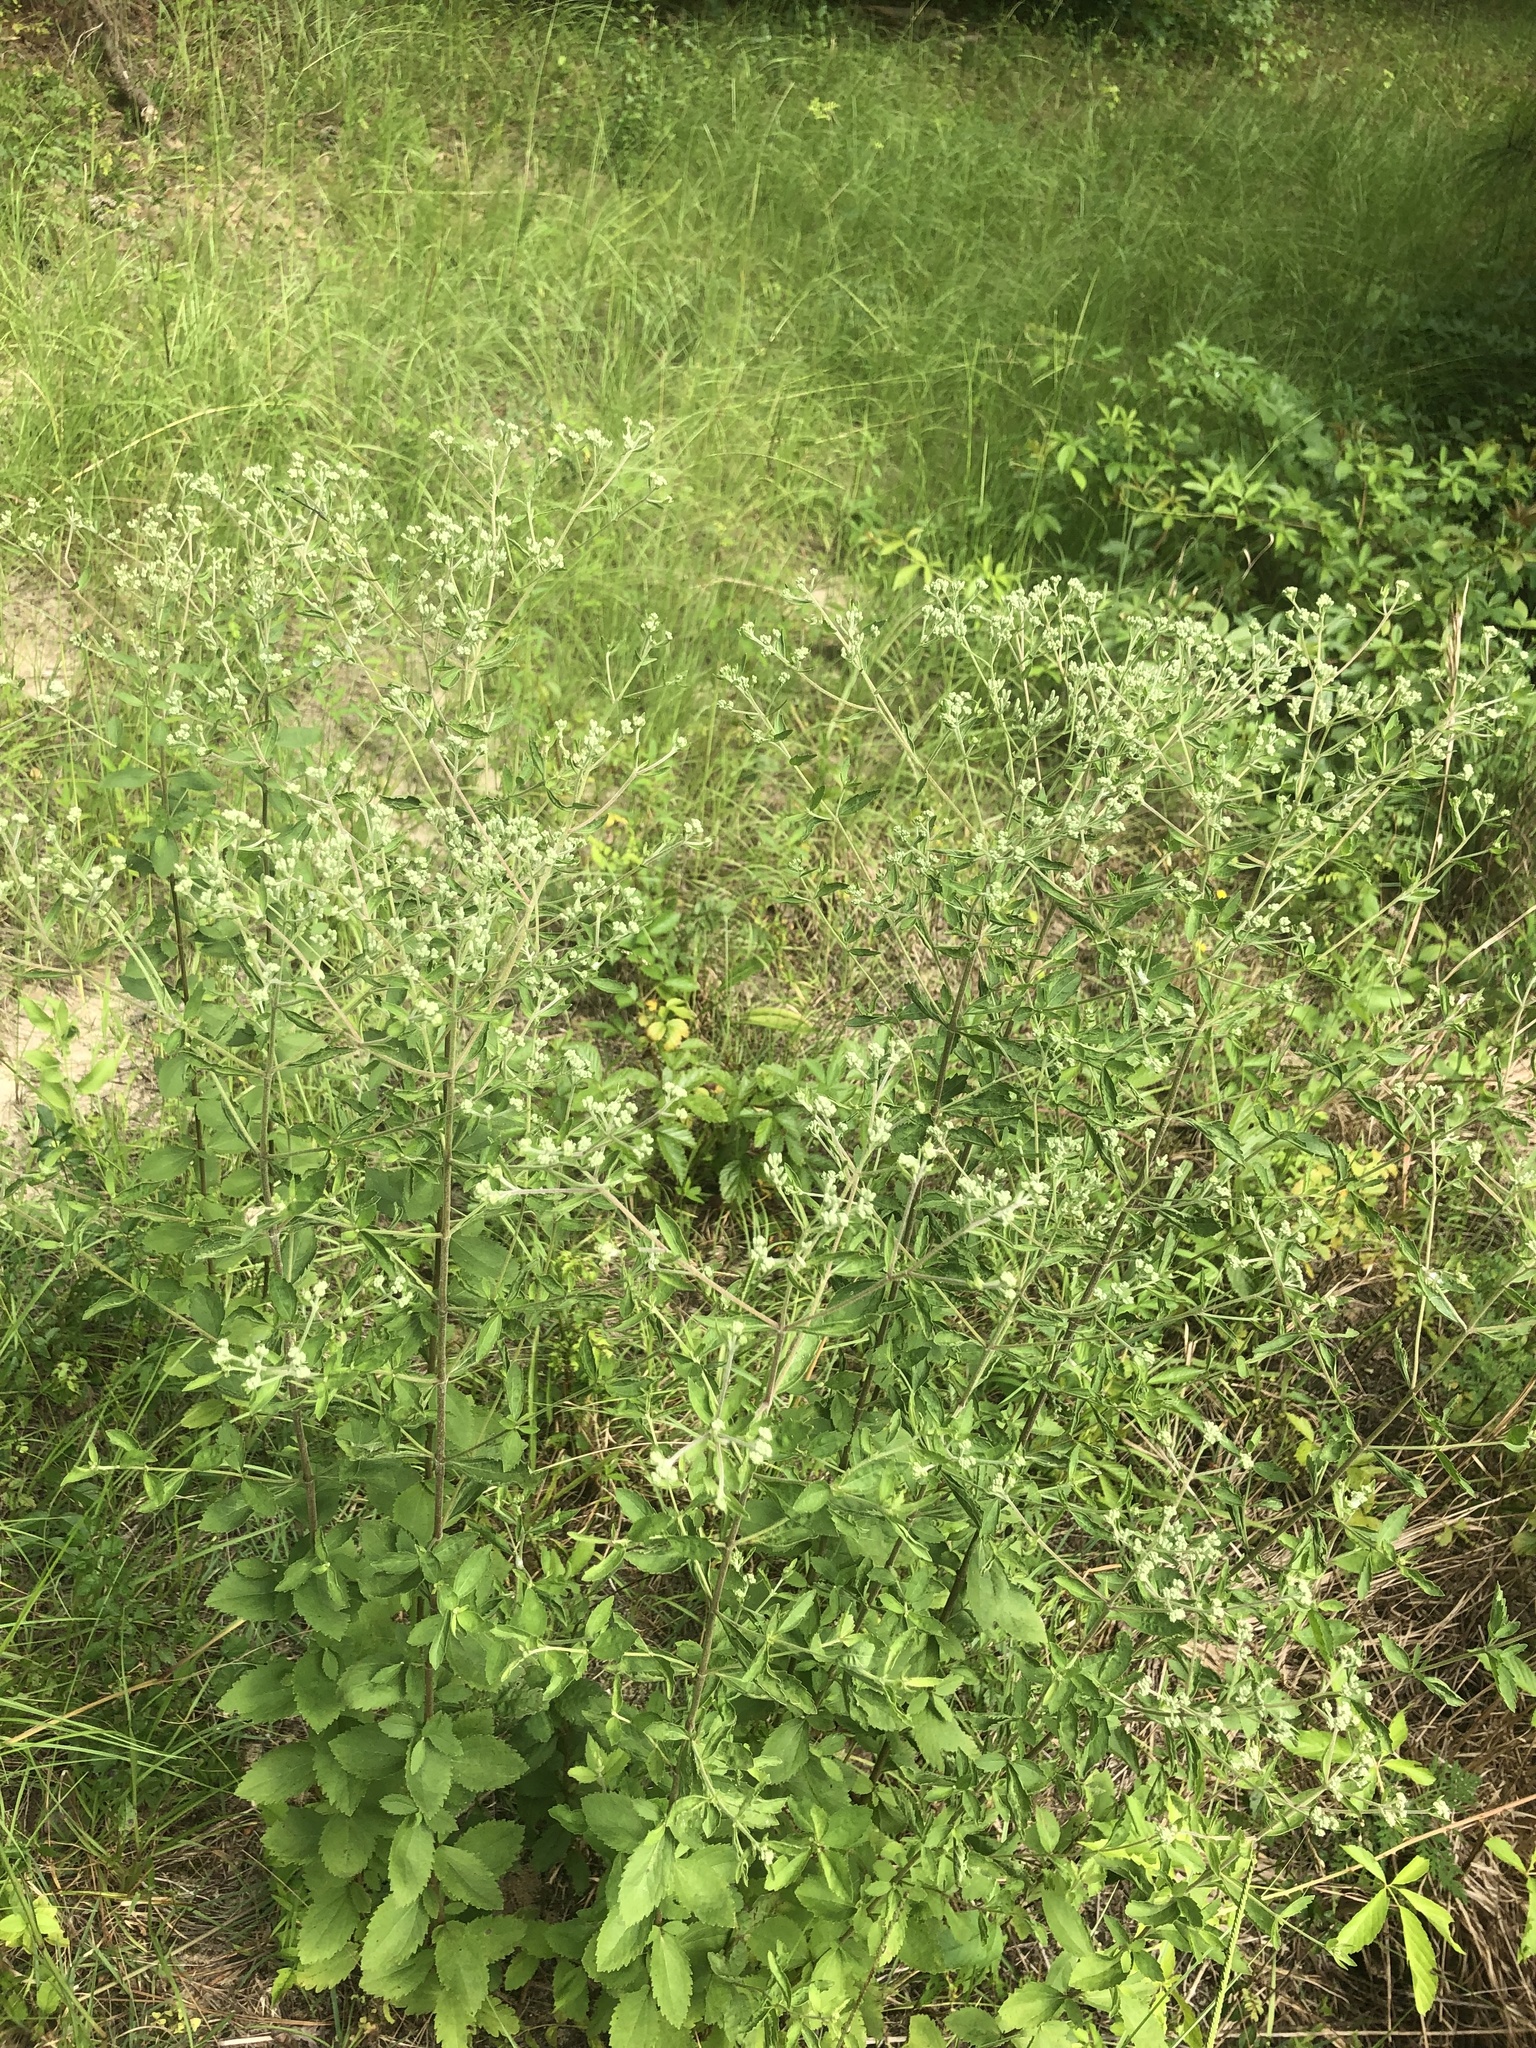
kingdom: Plantae
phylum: Tracheophyta
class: Magnoliopsida
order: Asterales
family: Asteraceae
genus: Eupatorium
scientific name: Eupatorium rotundifolium
